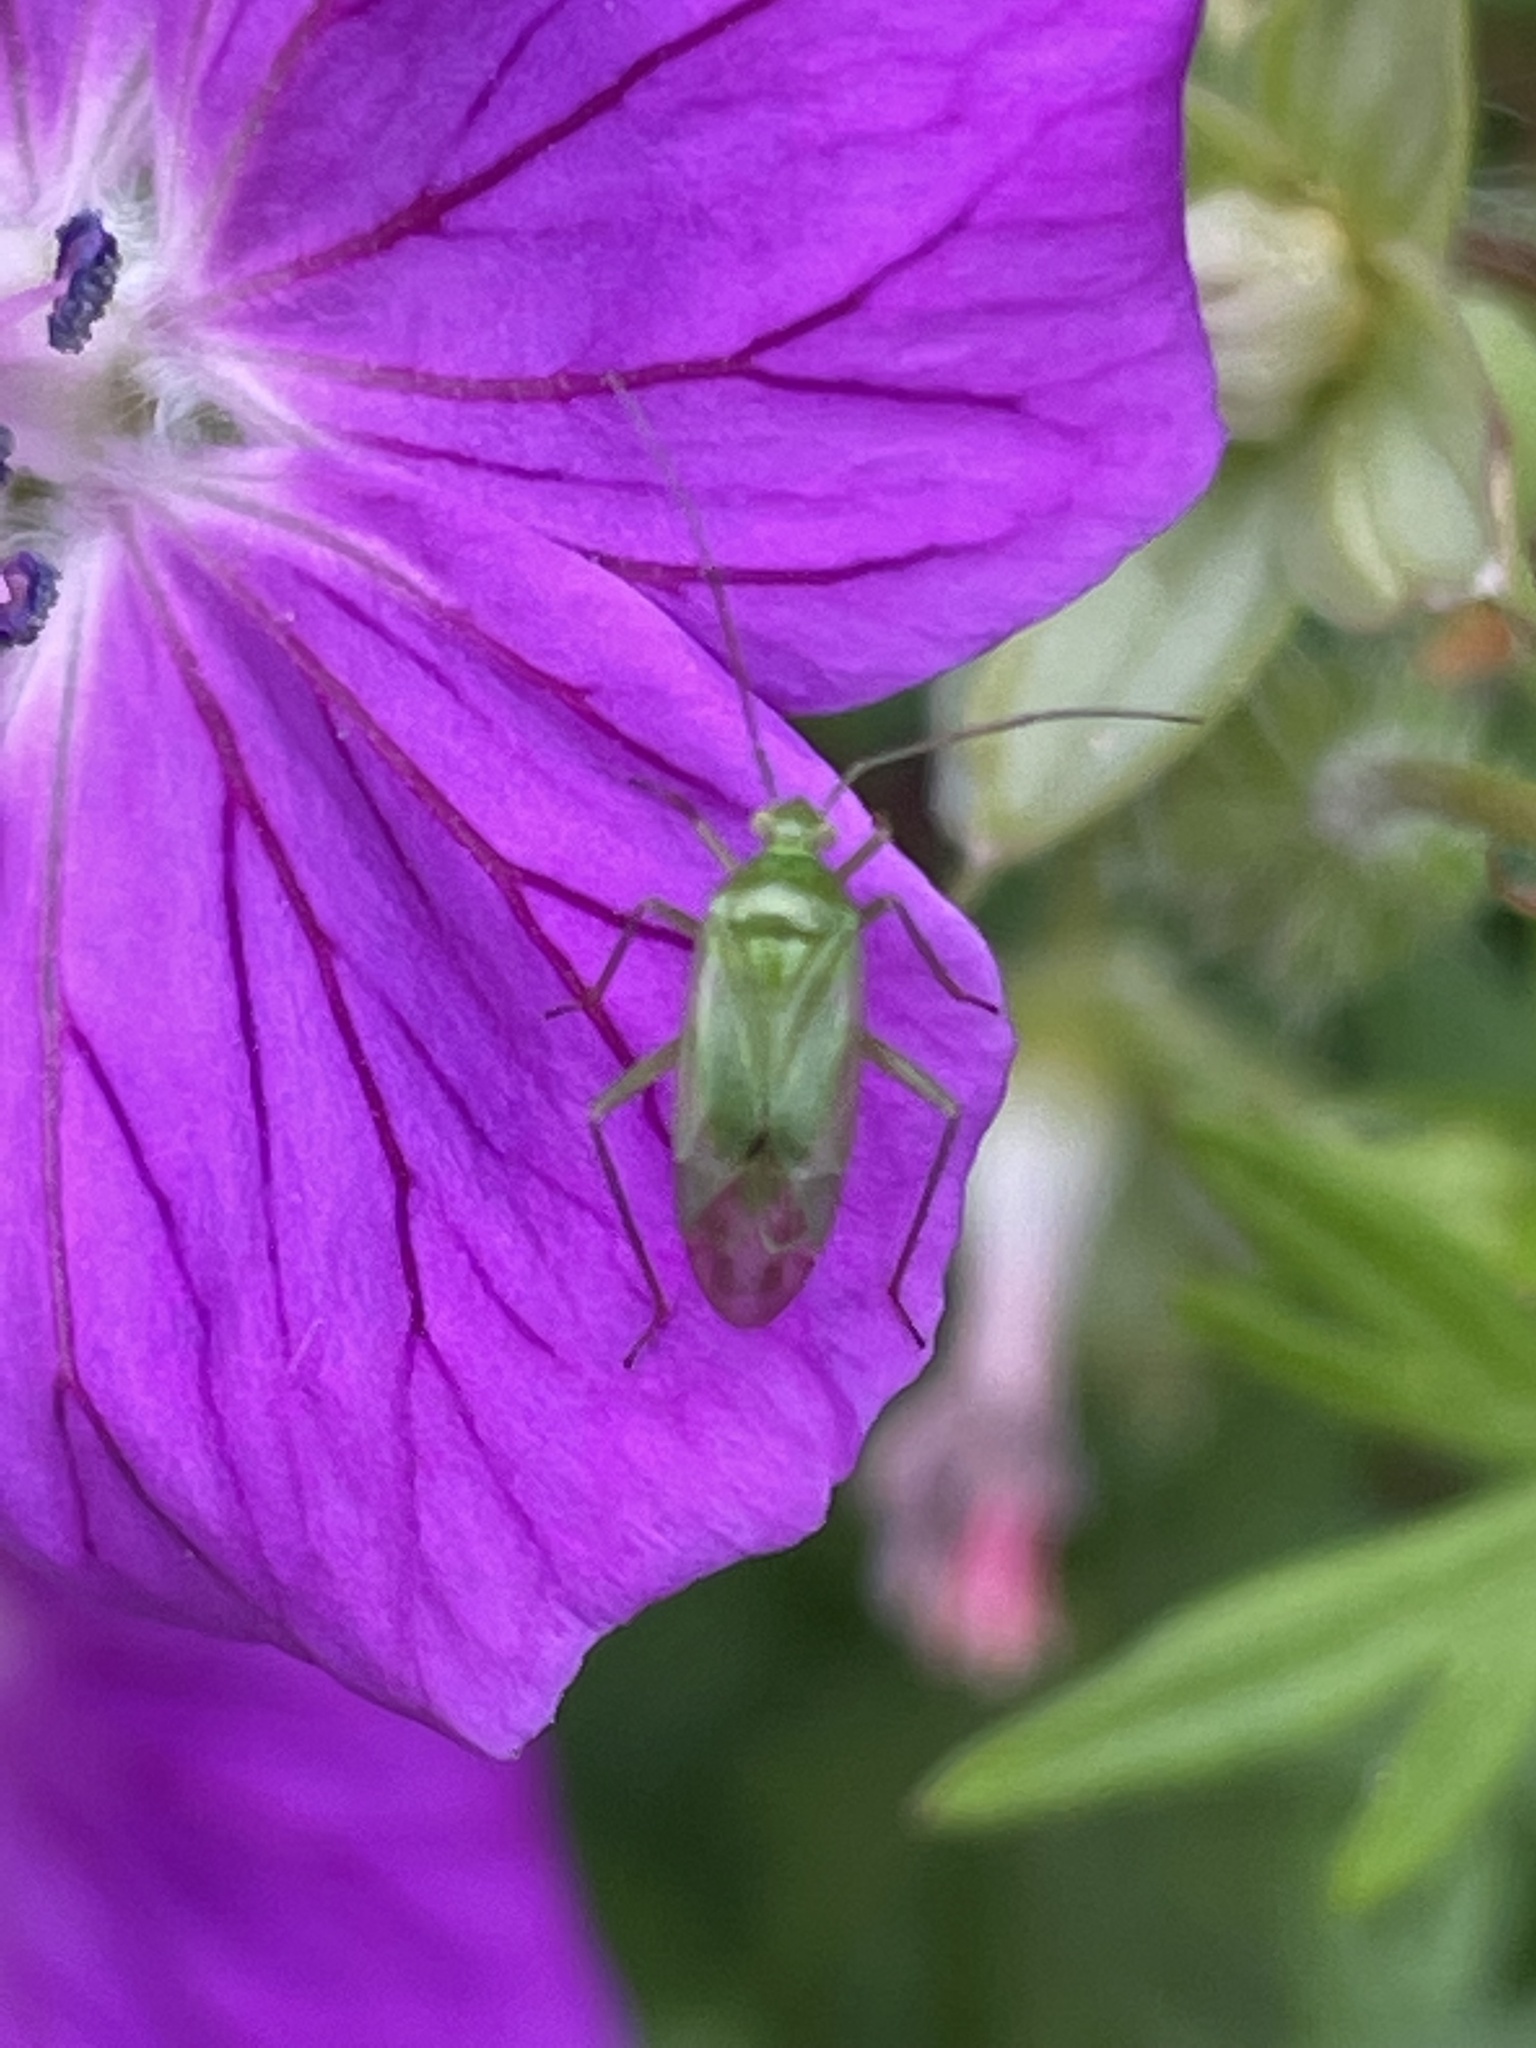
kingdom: Animalia
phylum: Arthropoda
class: Insecta
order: Hemiptera
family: Miridae
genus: Lygocoris
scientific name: Lygocoris pabulinus
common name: Common green capsid
